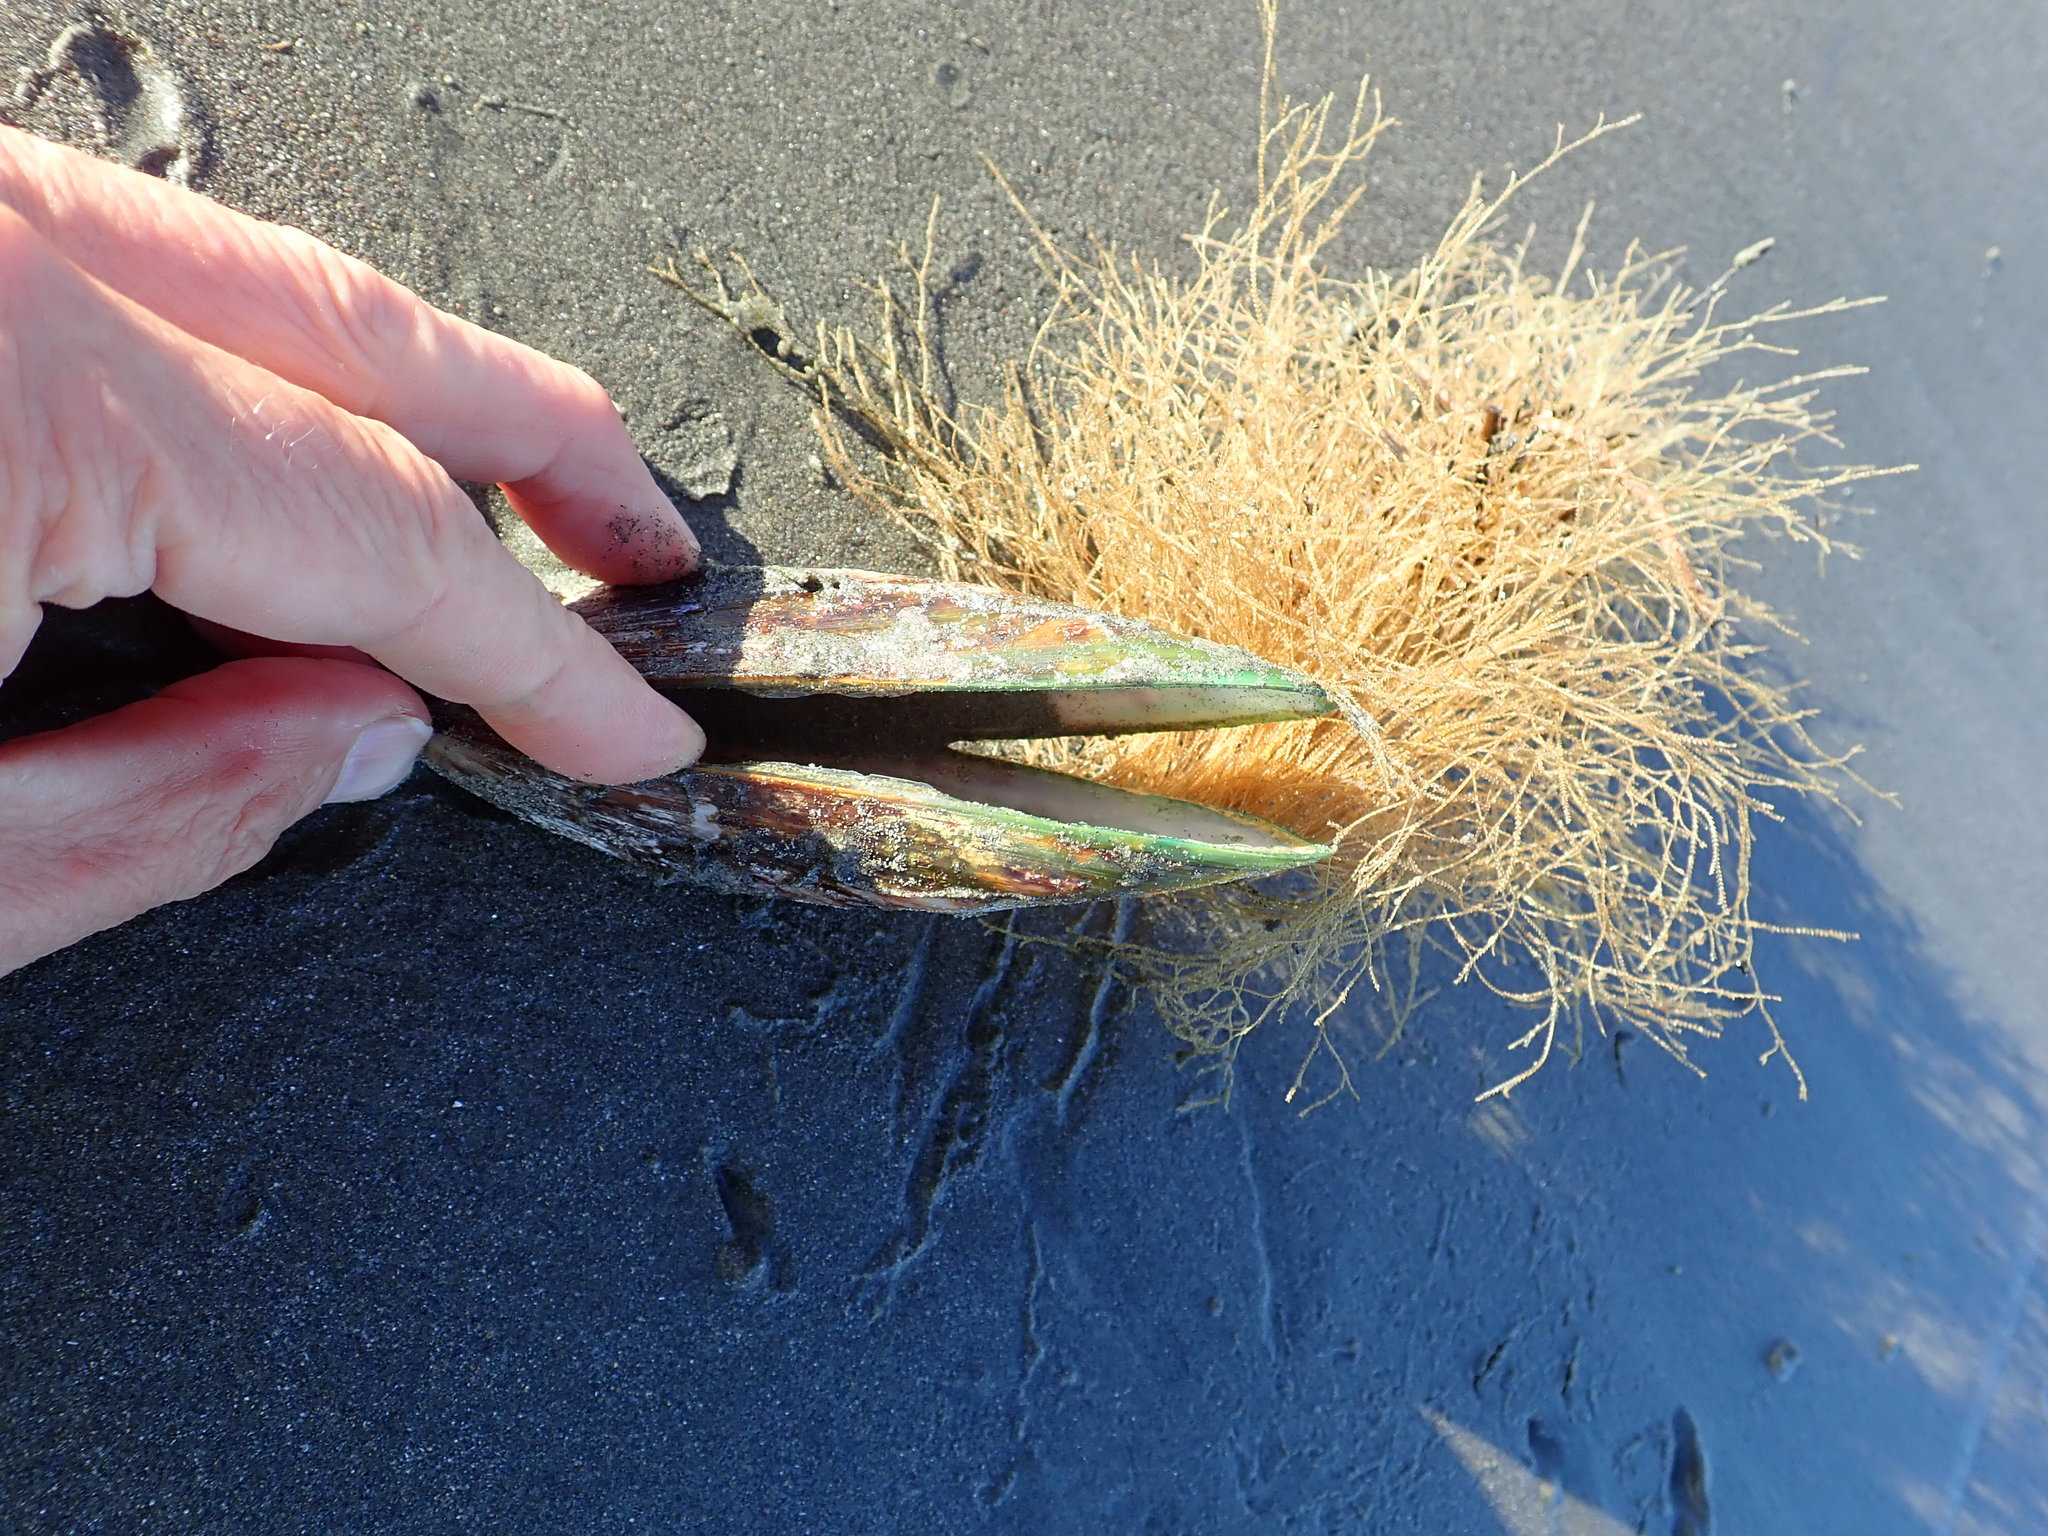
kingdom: Animalia
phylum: Cnidaria
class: Hydrozoa
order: Leptothecata
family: Sertulariidae
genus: Amphisbetia
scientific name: Amphisbetia bispinosa
